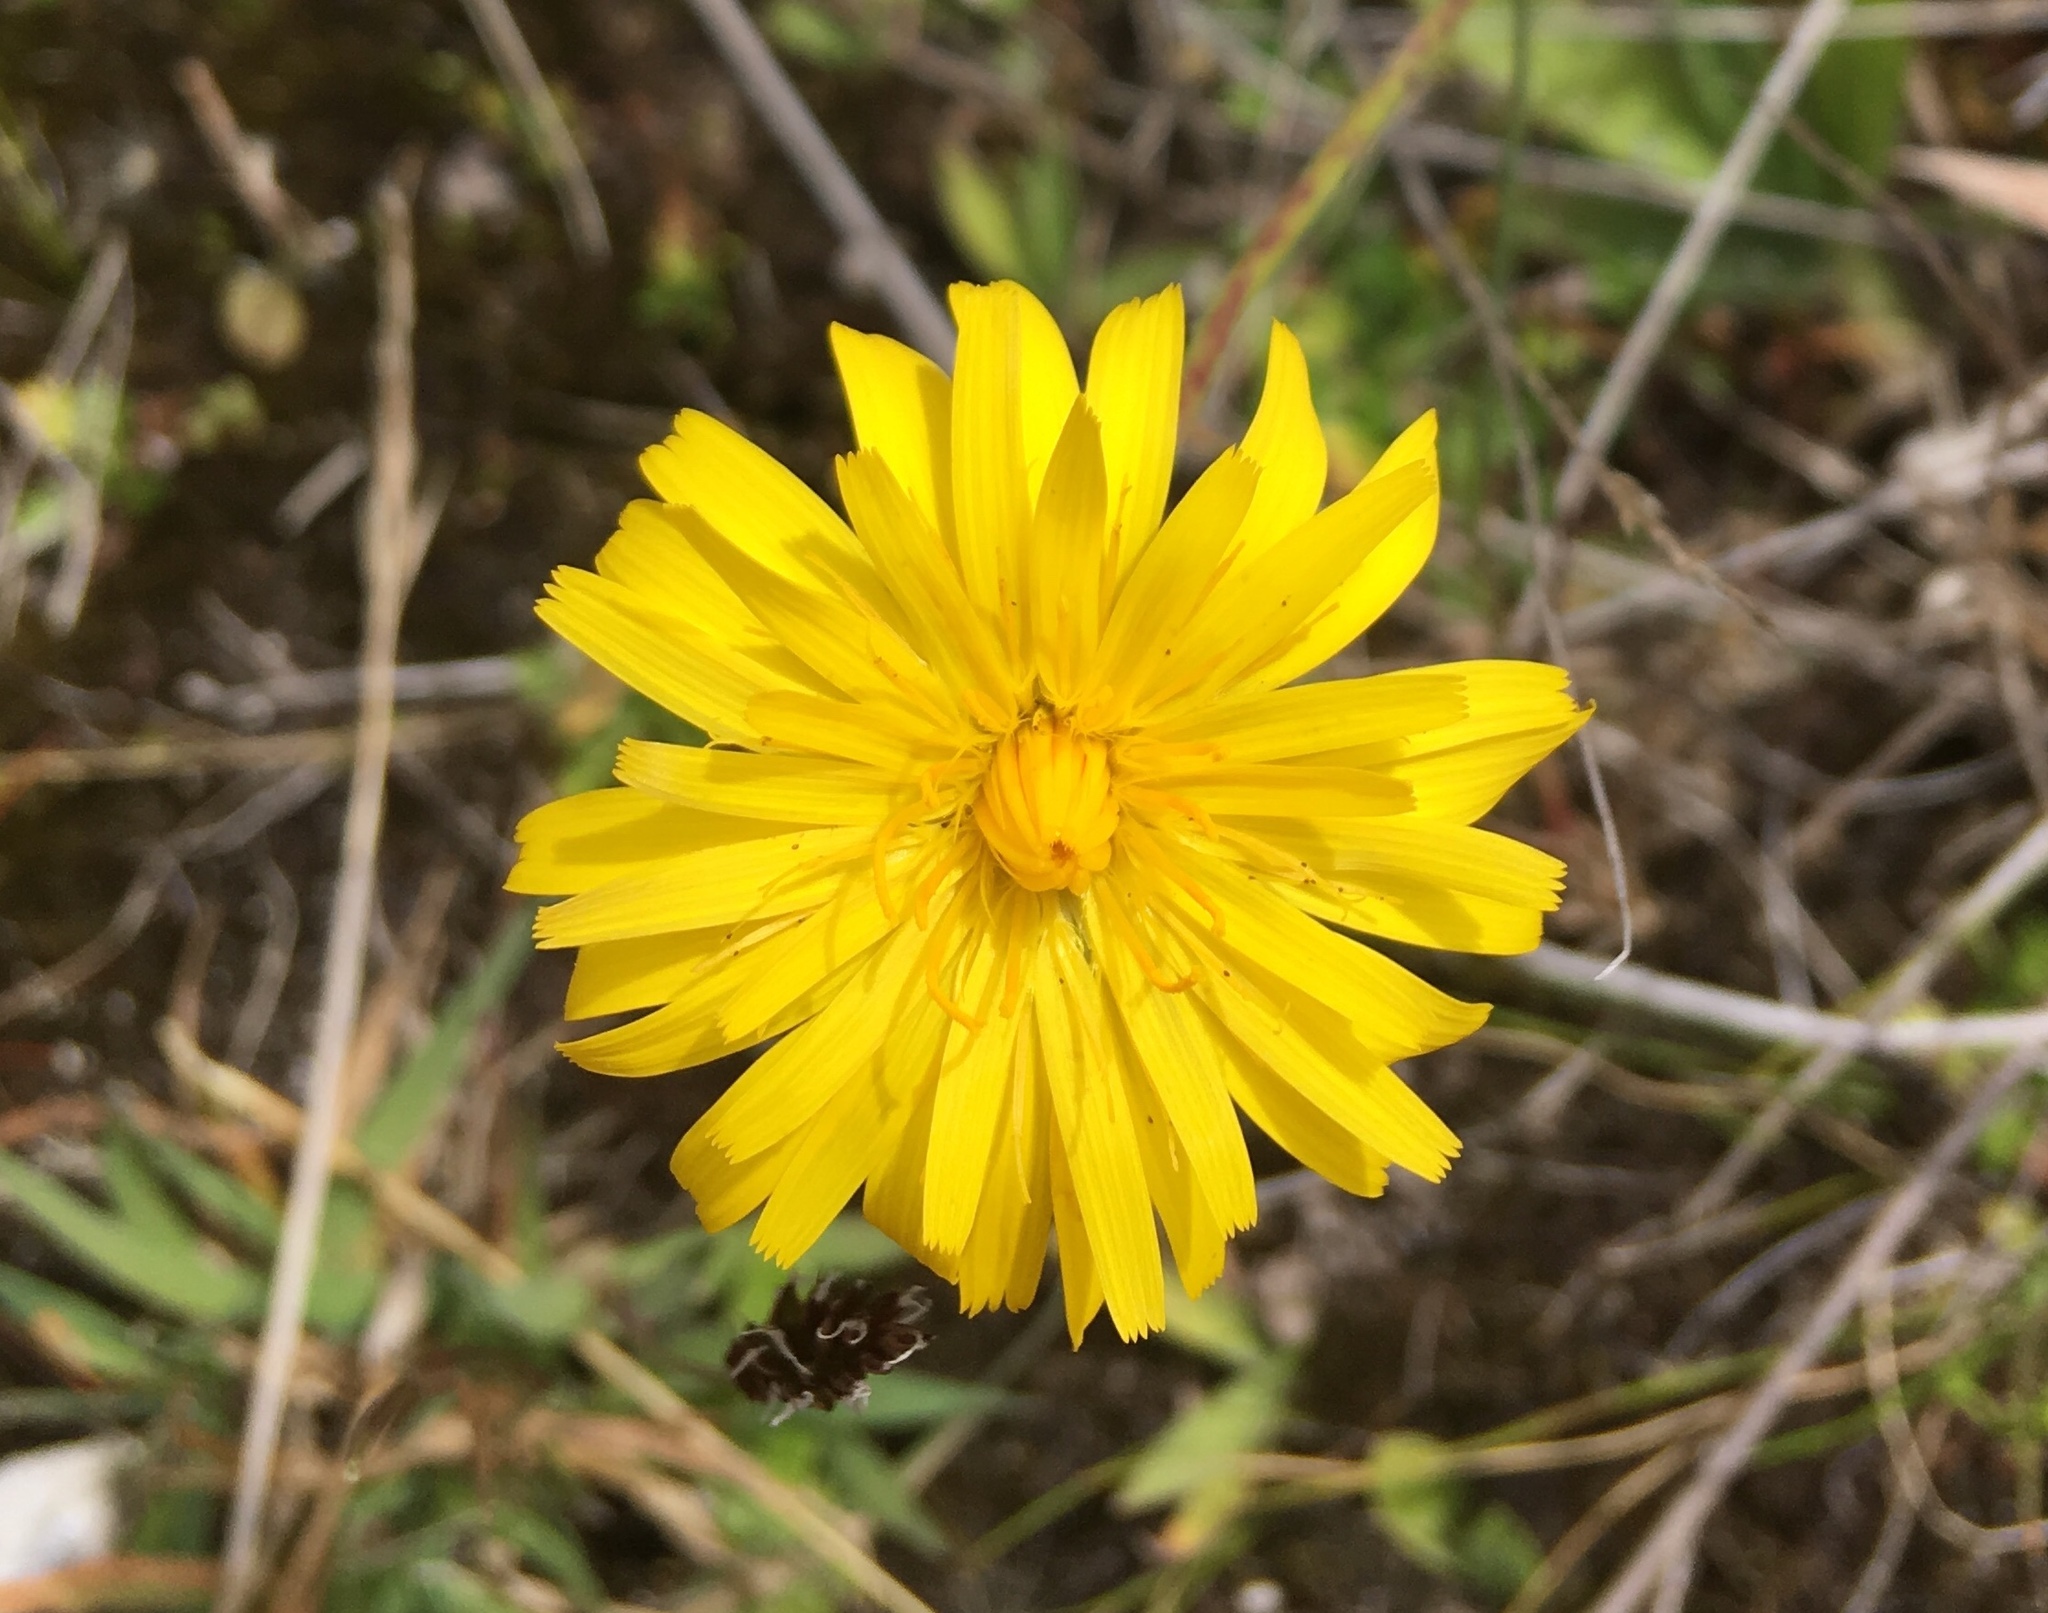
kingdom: Plantae
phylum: Tracheophyta
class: Magnoliopsida
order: Asterales
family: Asteraceae
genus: Hypochaeris
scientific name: Hypochaeris radicata
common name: Flatweed
